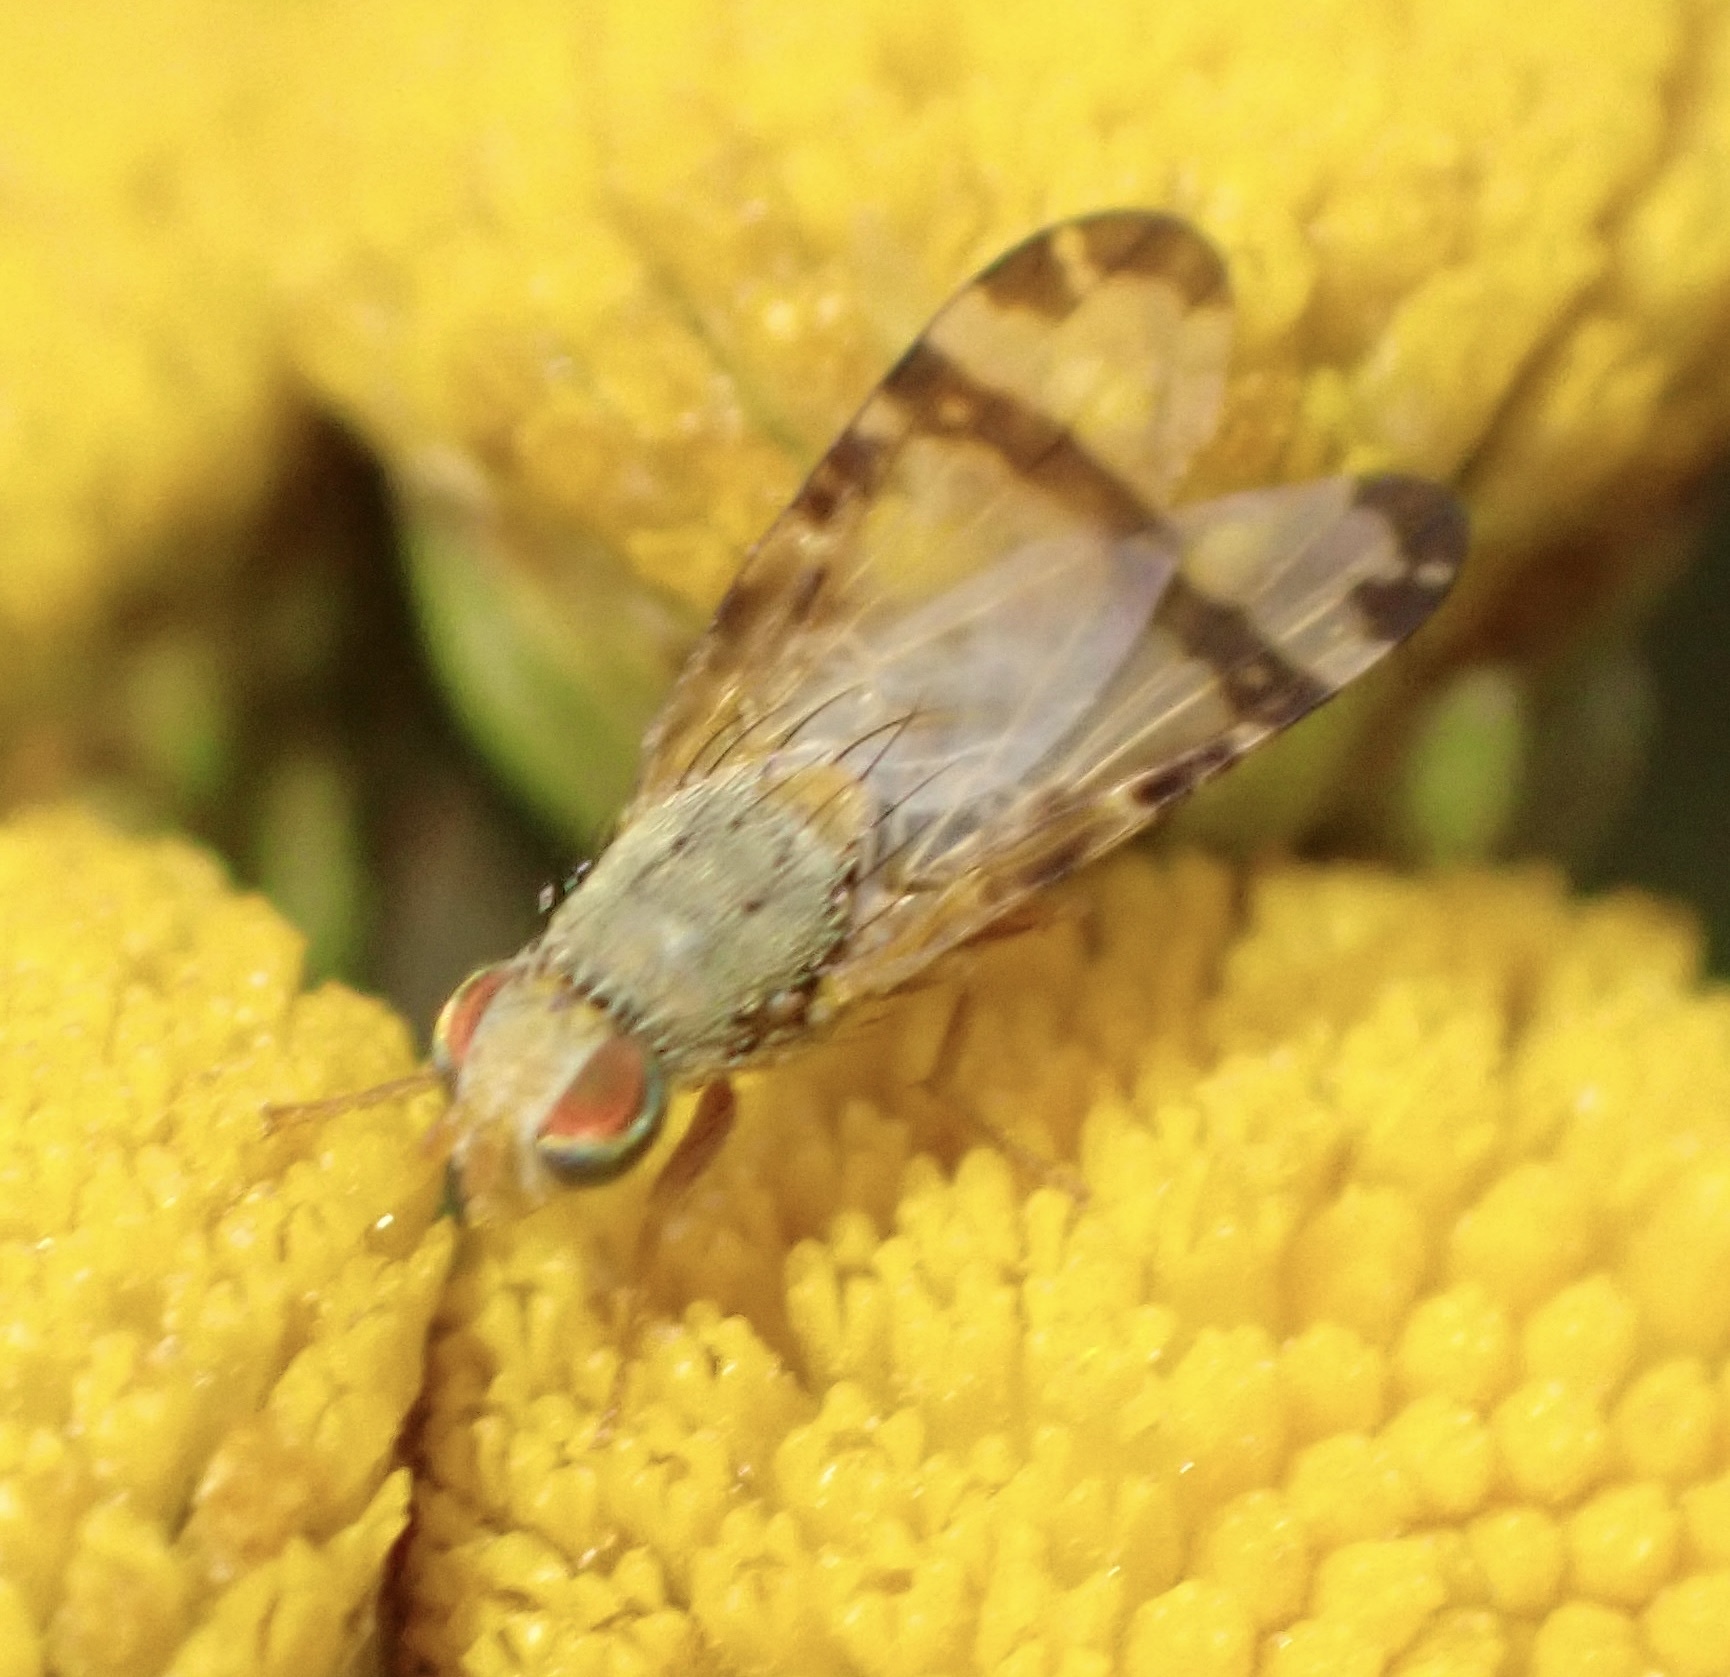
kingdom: Animalia
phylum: Arthropoda
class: Insecta
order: Diptera
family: Tephritidae
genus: Sphenella
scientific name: Sphenella marginata
